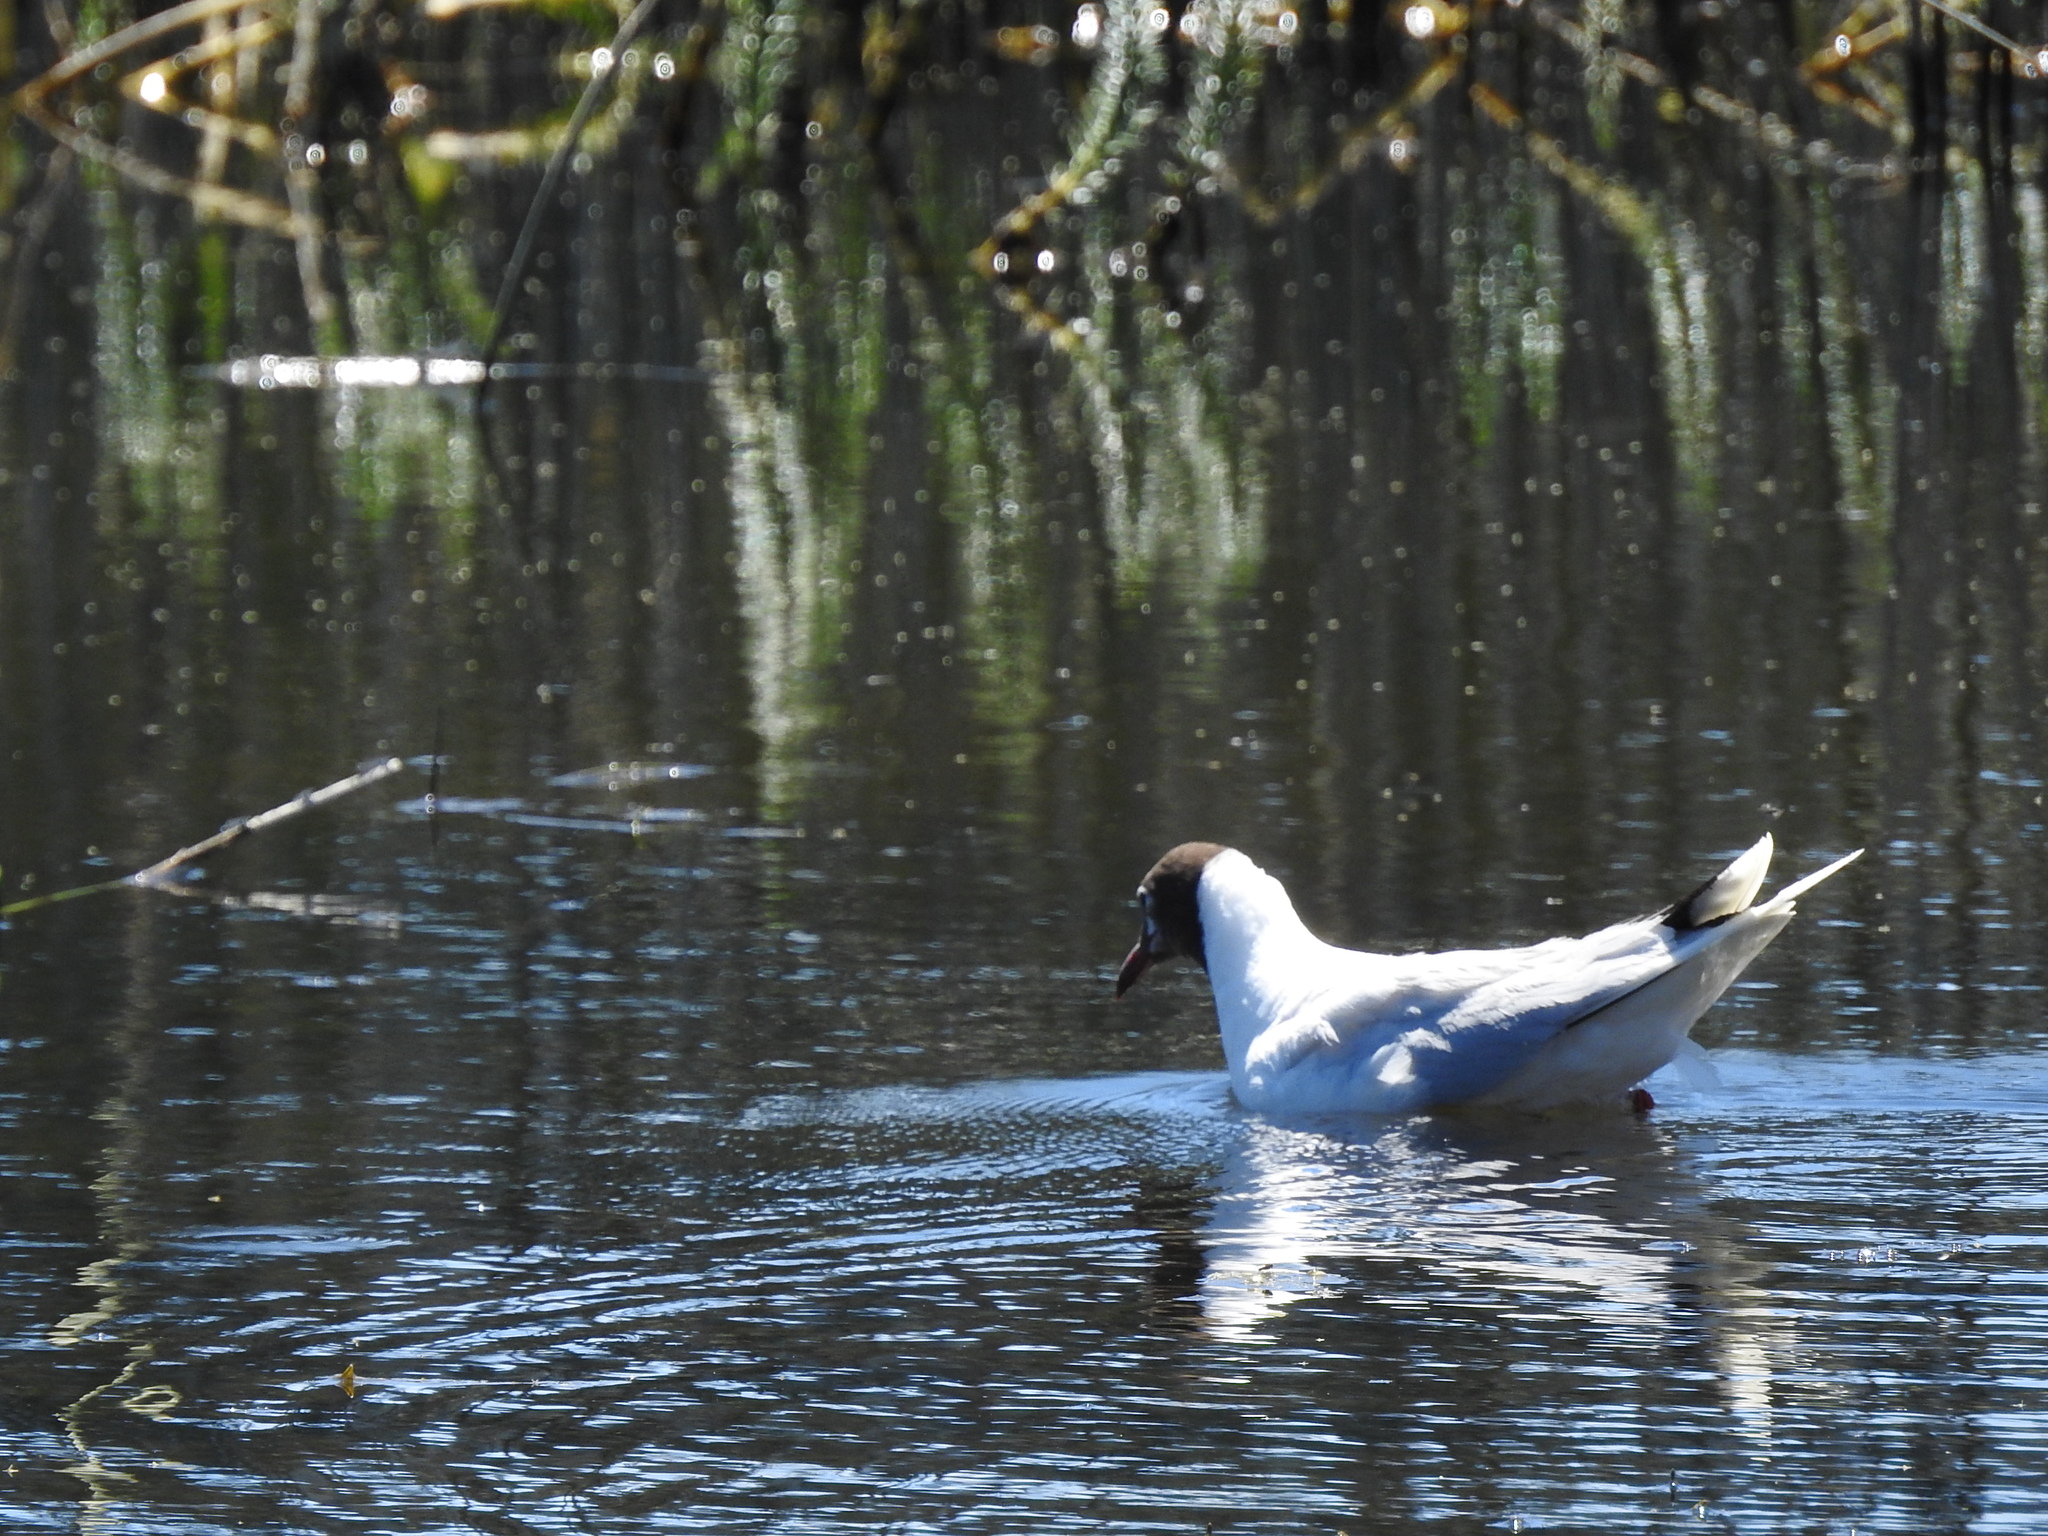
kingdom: Animalia
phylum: Chordata
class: Aves
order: Charadriiformes
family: Laridae
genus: Chroicocephalus
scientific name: Chroicocephalus maculipennis
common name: Brown-hooded gull
